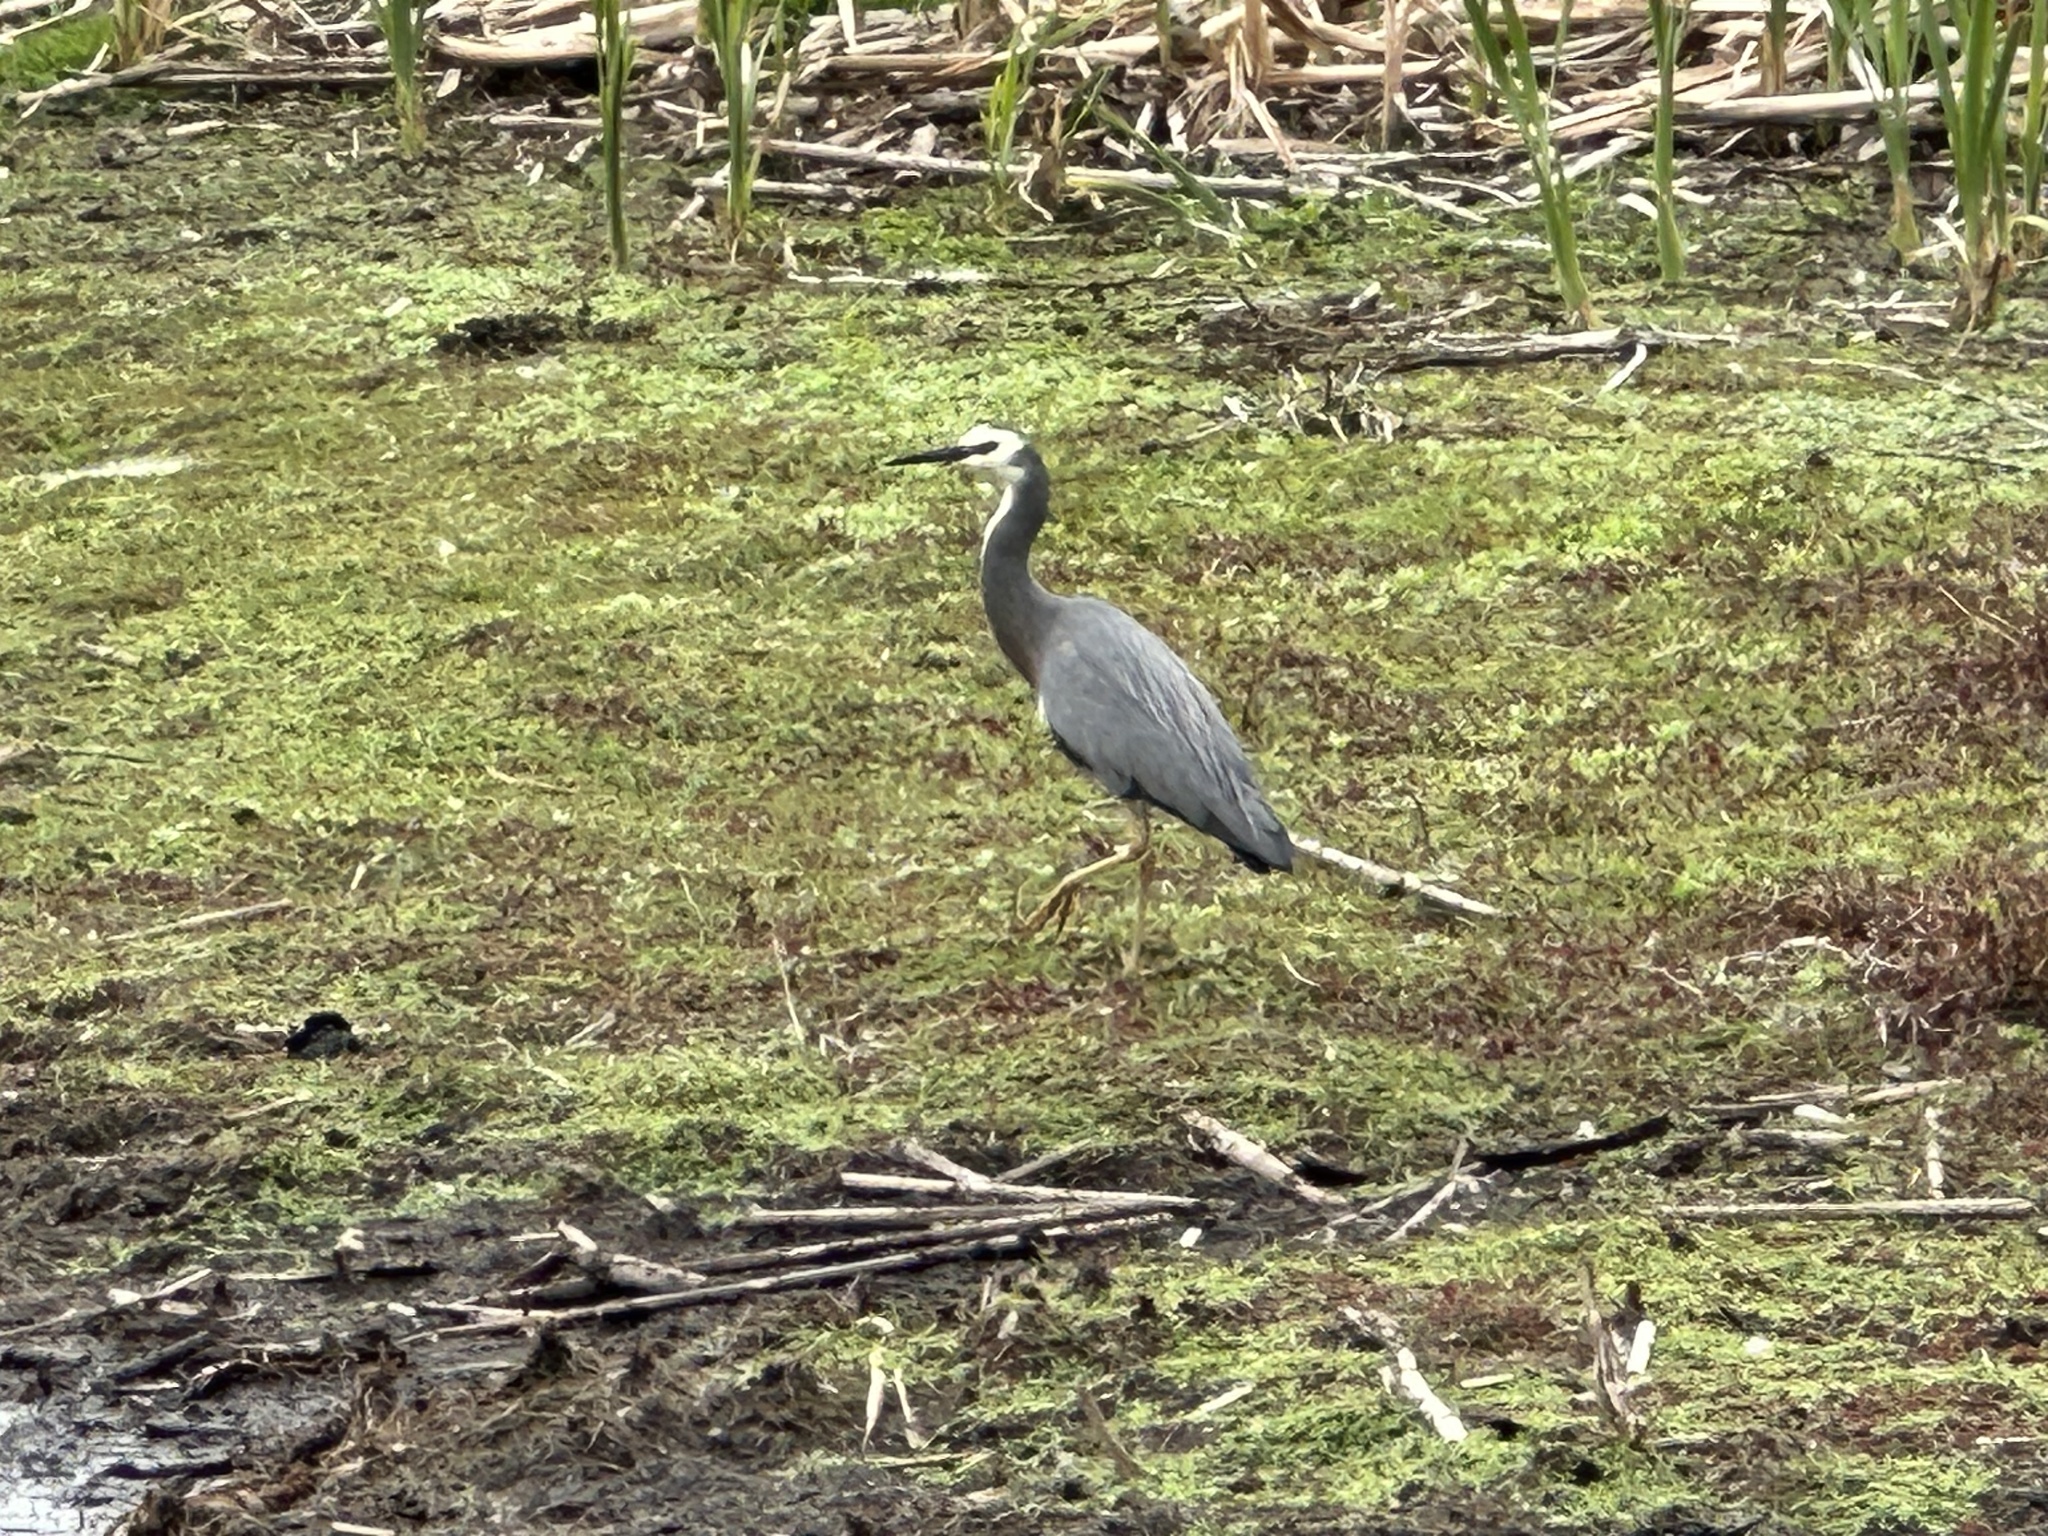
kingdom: Animalia
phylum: Chordata
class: Aves
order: Pelecaniformes
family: Ardeidae
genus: Egretta
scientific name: Egretta novaehollandiae
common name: White-faced heron
